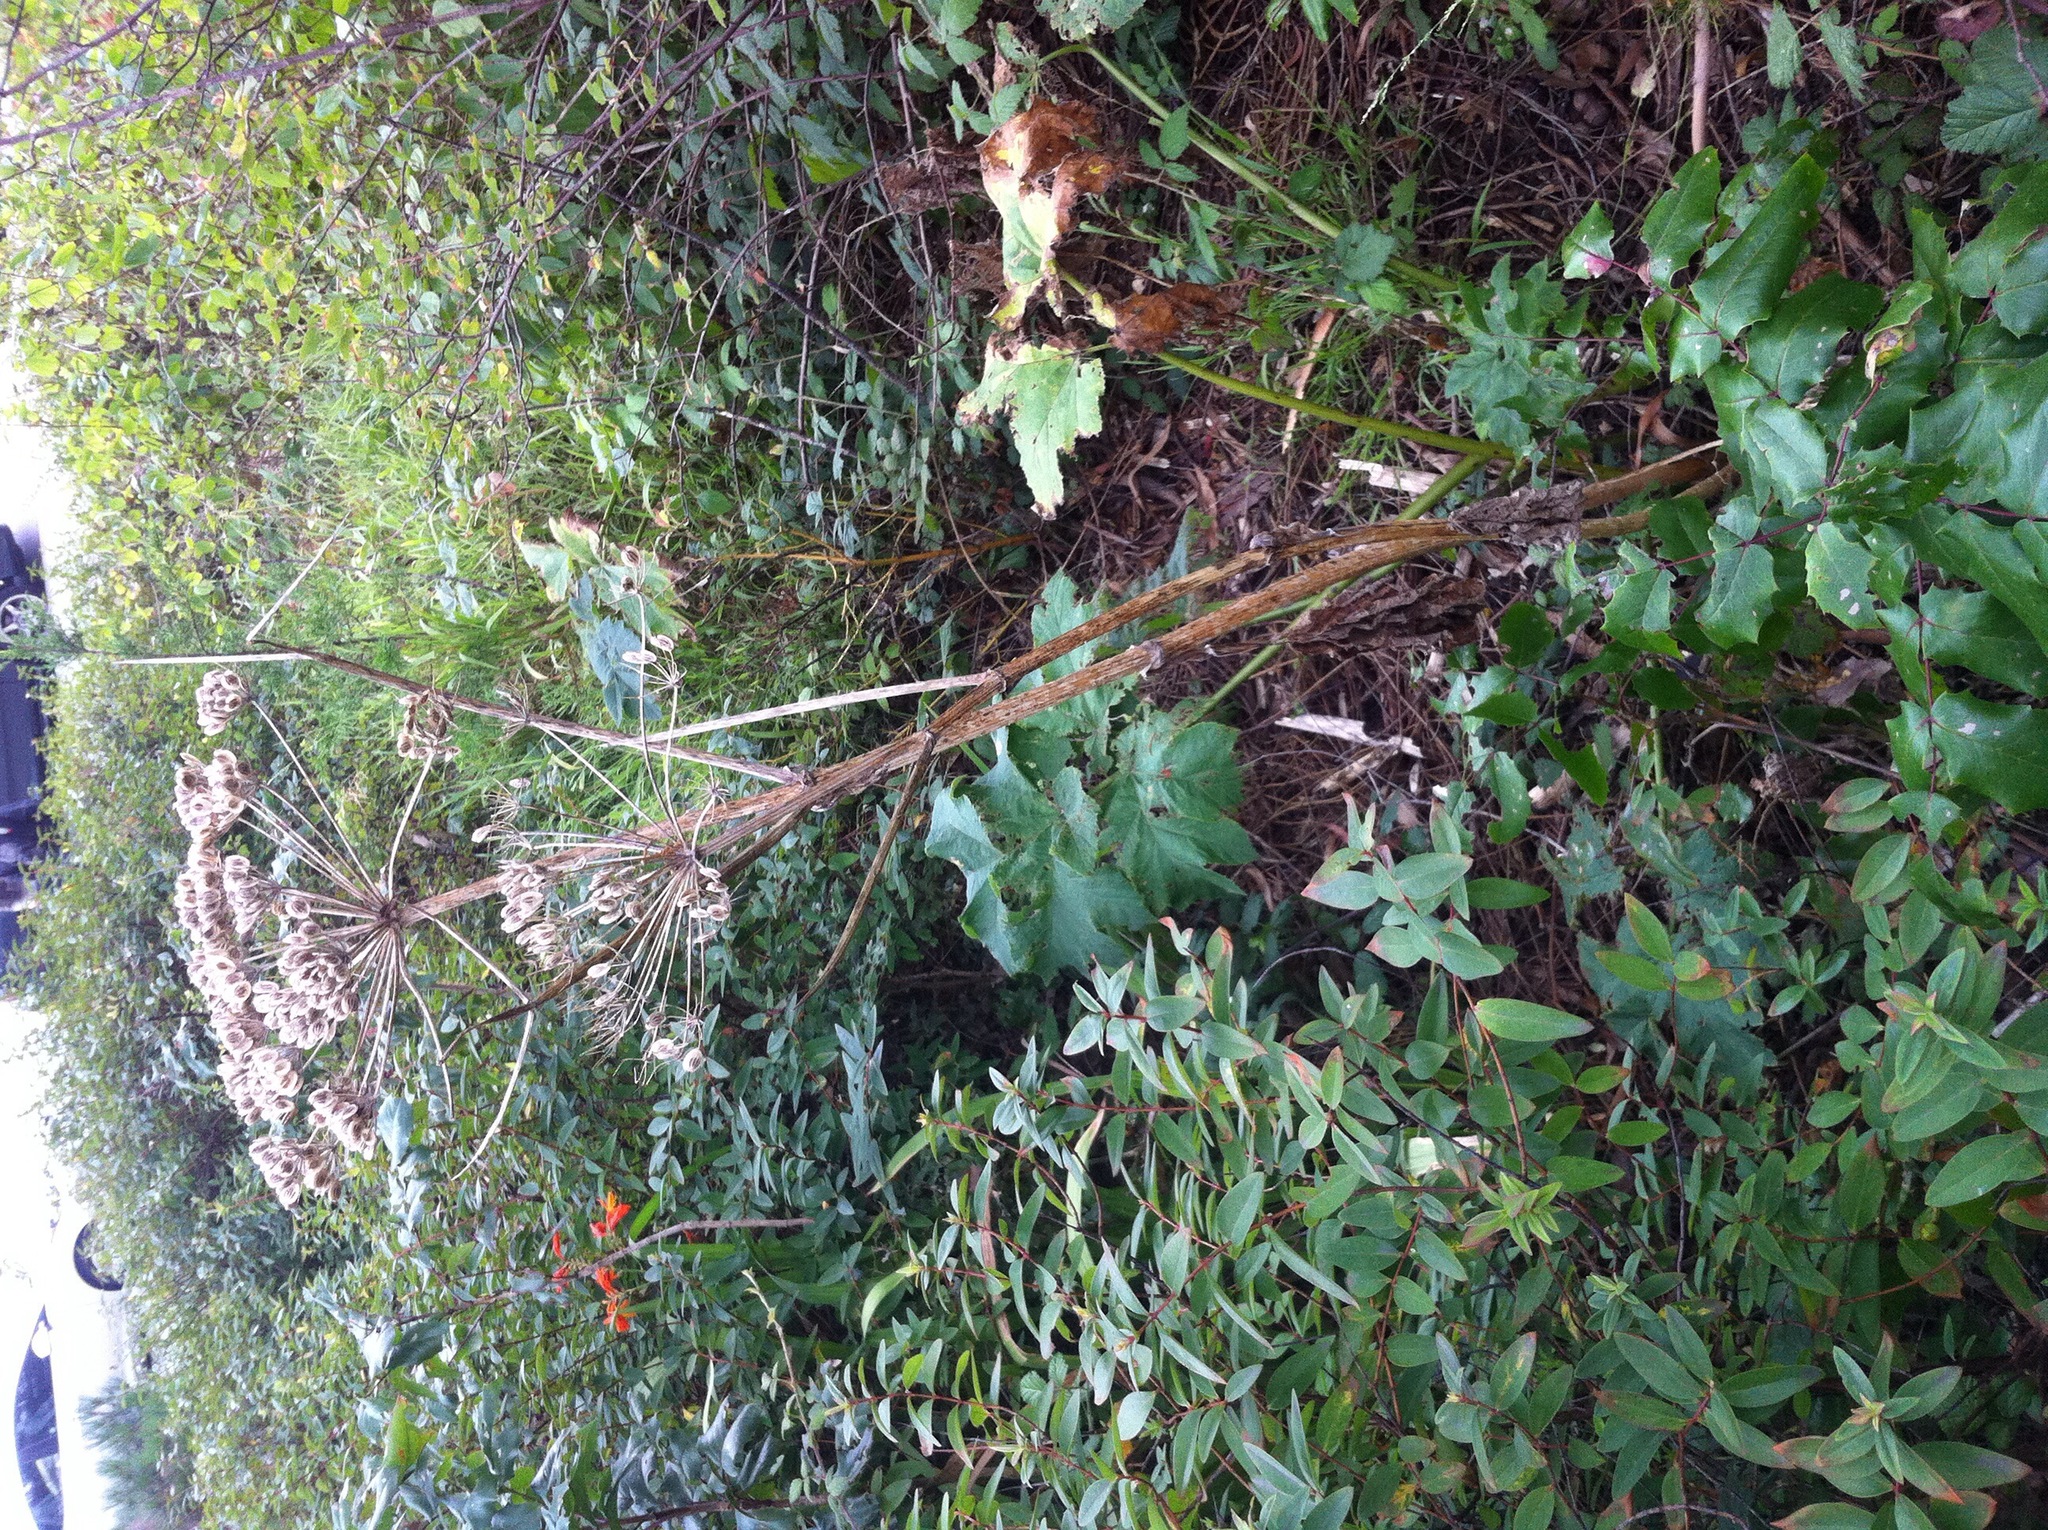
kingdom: Plantae
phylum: Tracheophyta
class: Magnoliopsida
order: Apiales
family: Apiaceae
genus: Heracleum
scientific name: Heracleum maximum
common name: American cow parsnip
